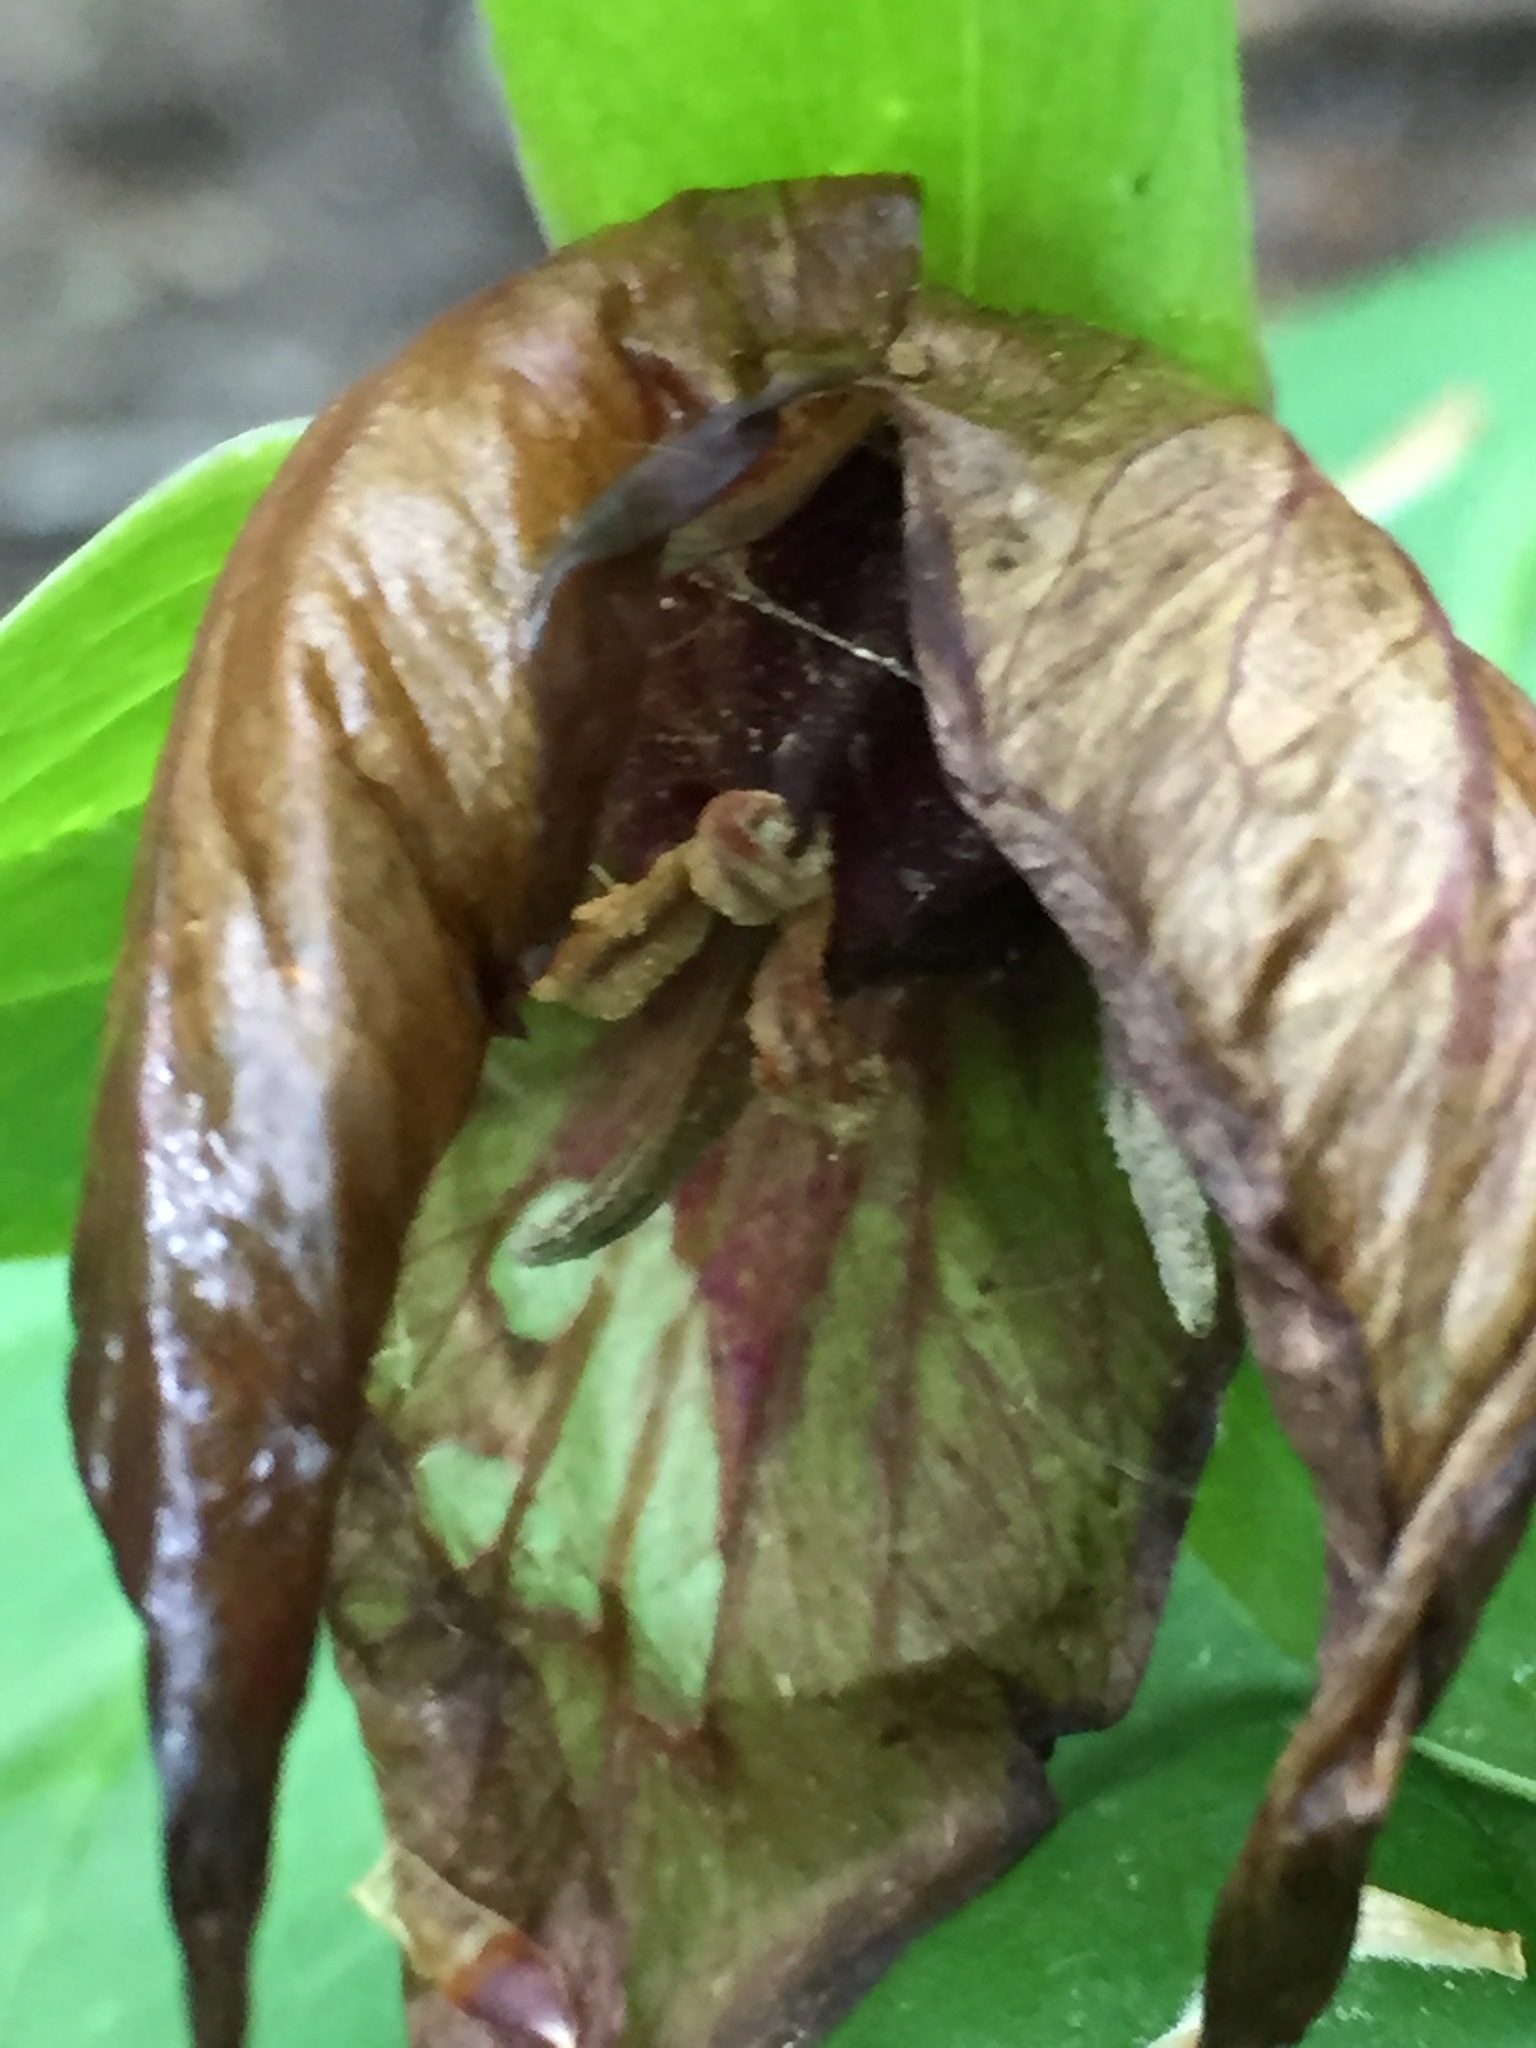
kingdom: Plantae
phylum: Tracheophyta
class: Liliopsida
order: Liliales
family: Melanthiaceae
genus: Trillium
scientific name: Trillium erectum
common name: Purple trillium
